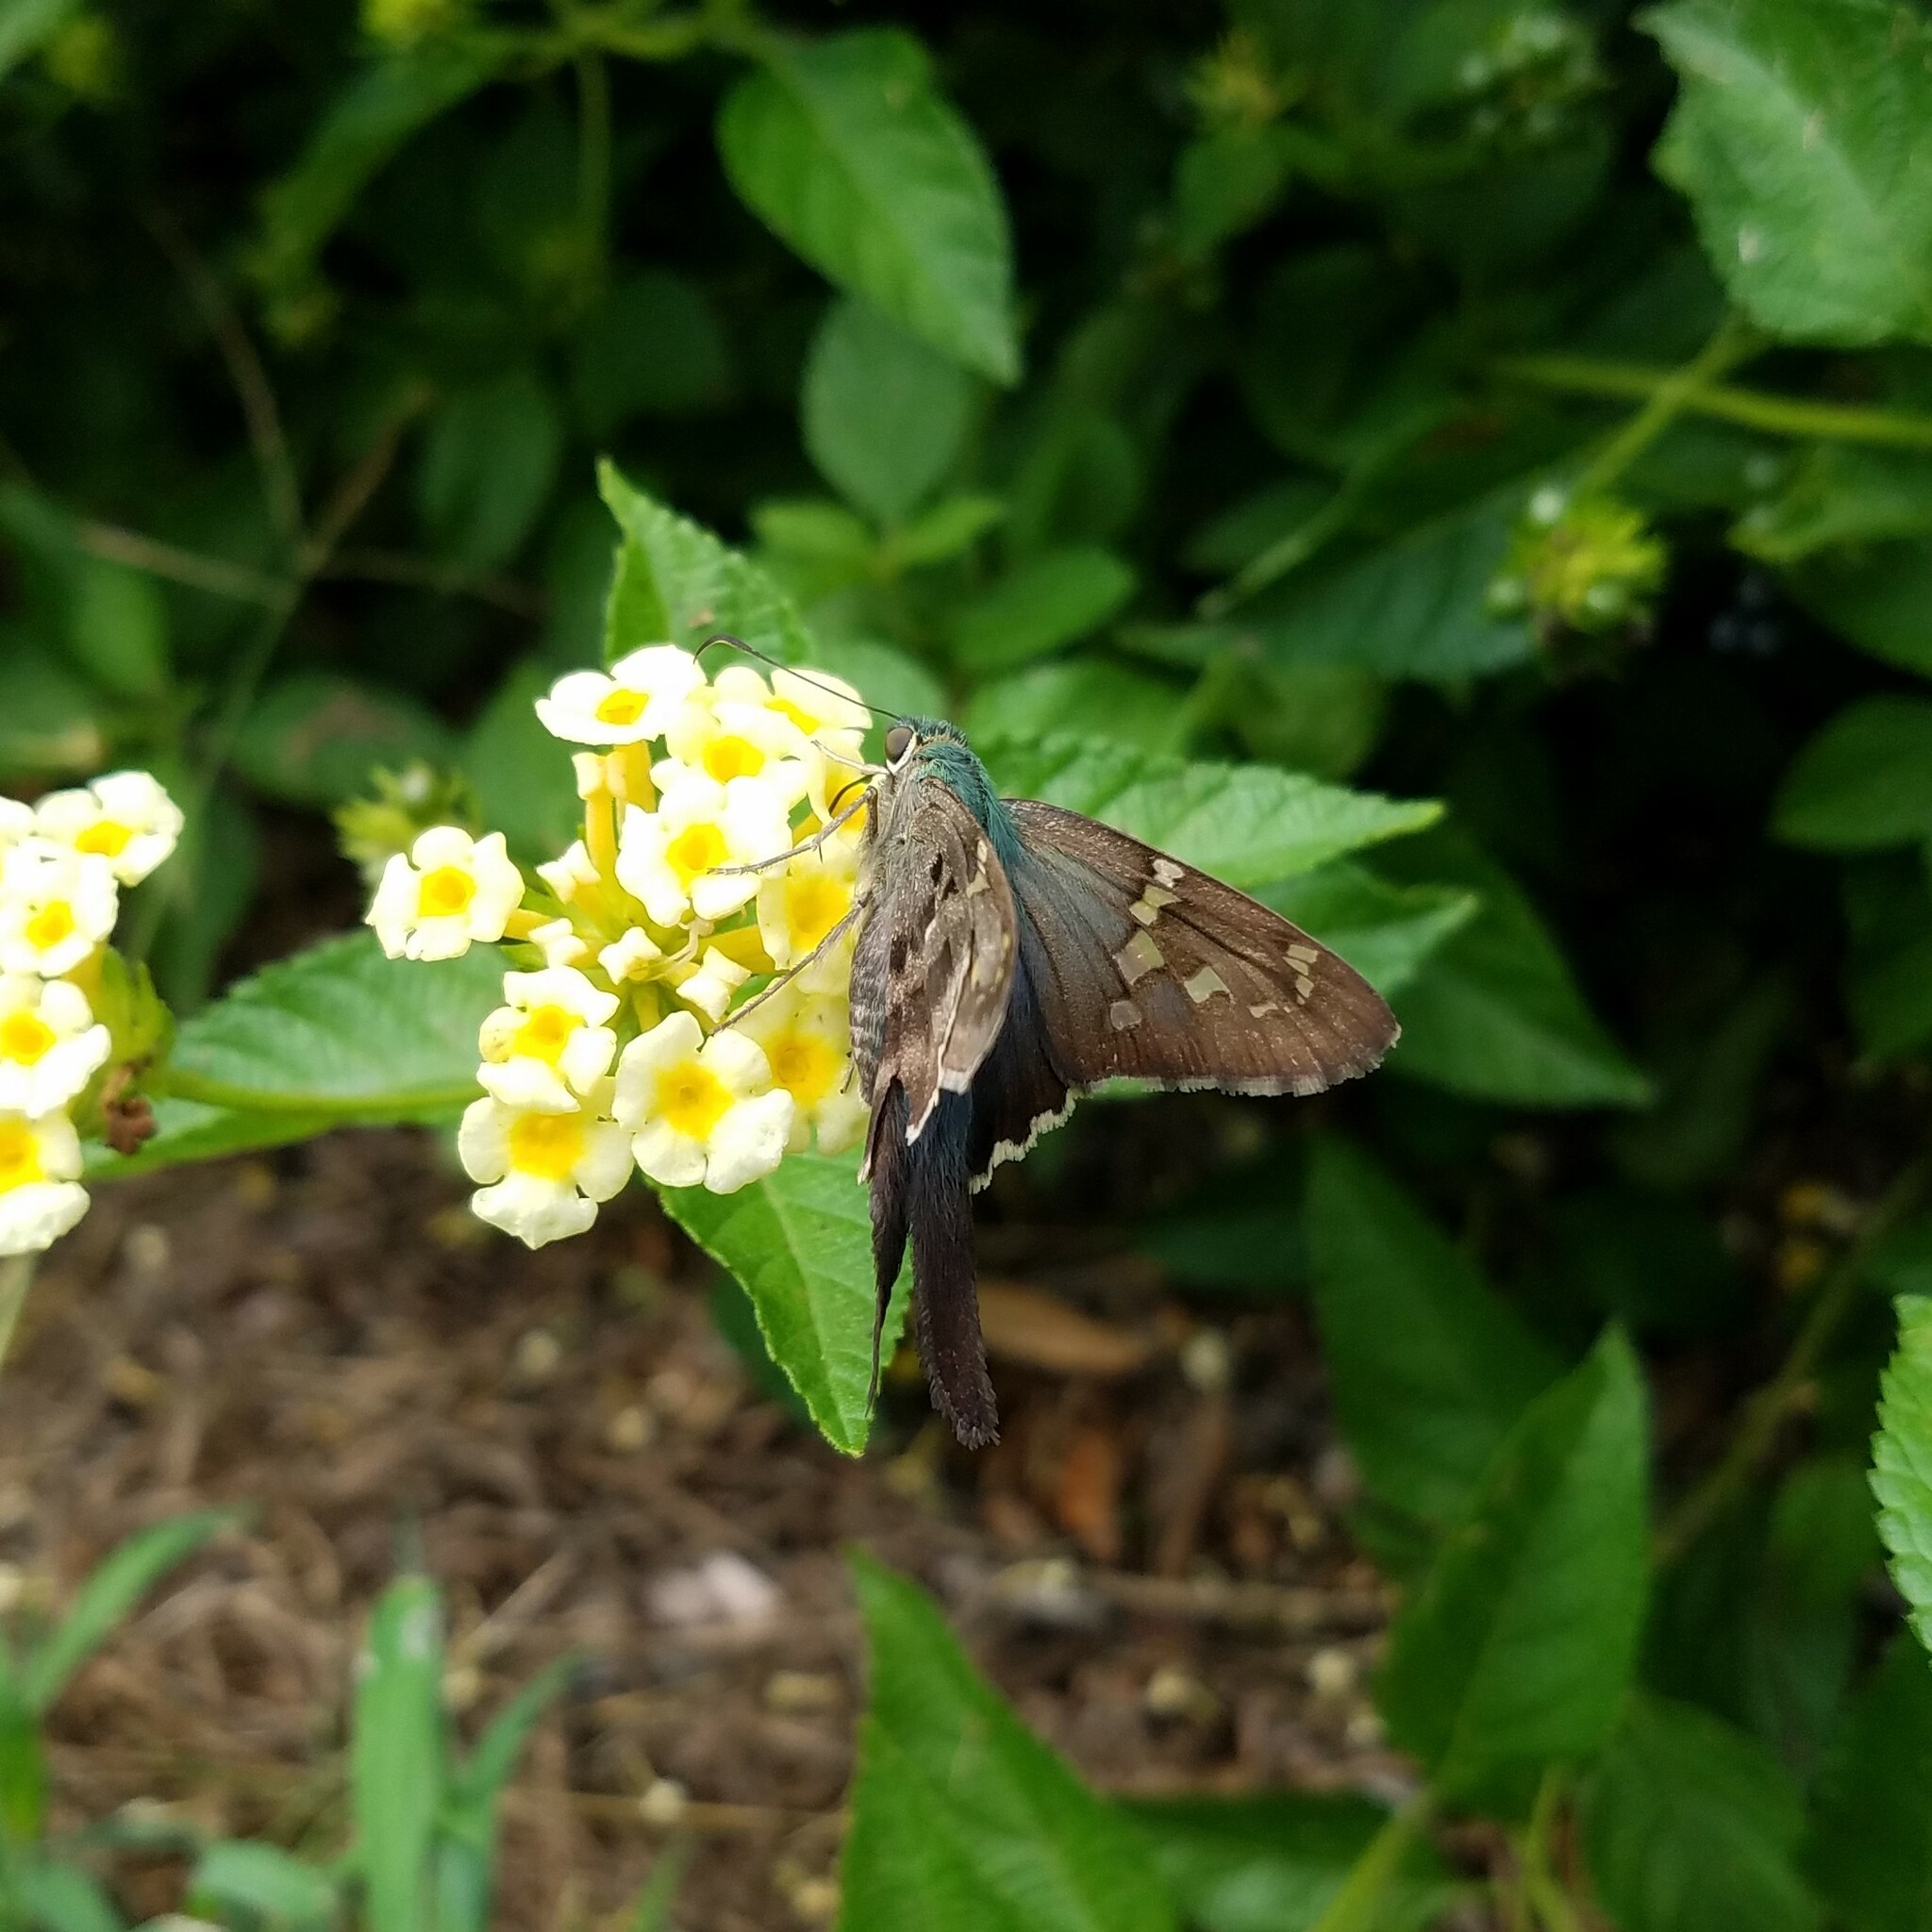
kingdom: Animalia
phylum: Arthropoda
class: Insecta
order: Lepidoptera
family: Hesperiidae
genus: Urbanus
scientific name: Urbanus proteus
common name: Long-tailed skipper
